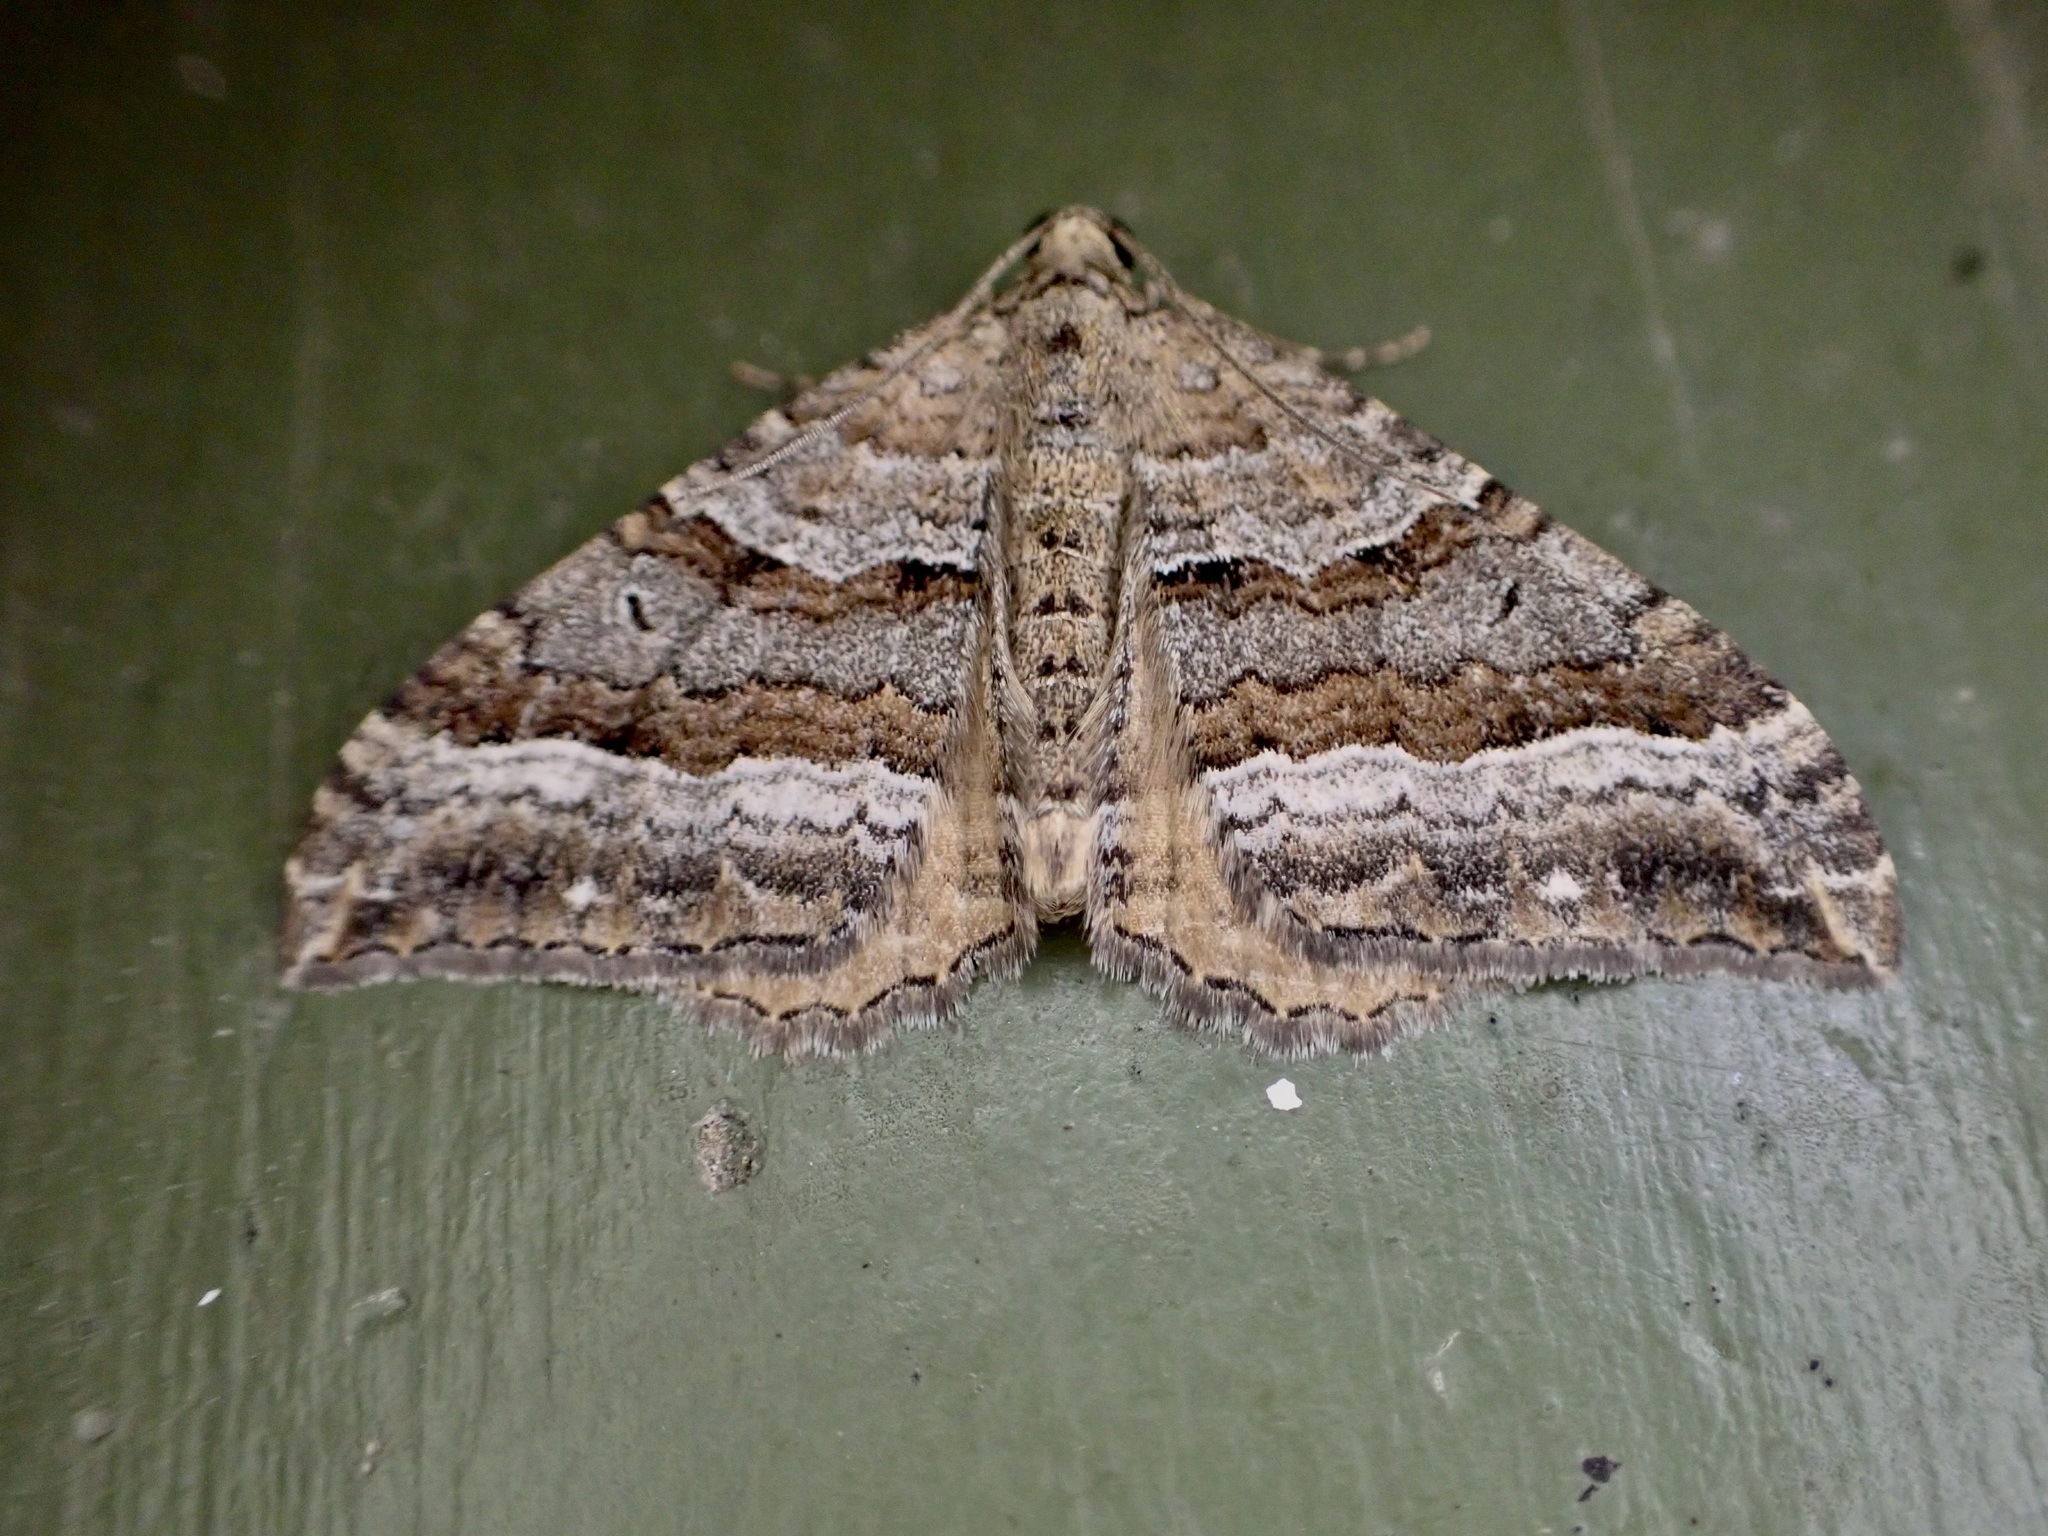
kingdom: Animalia
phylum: Arthropoda
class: Insecta
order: Lepidoptera
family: Geometridae
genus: Hydriomena
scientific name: Hydriomena deltoidata
